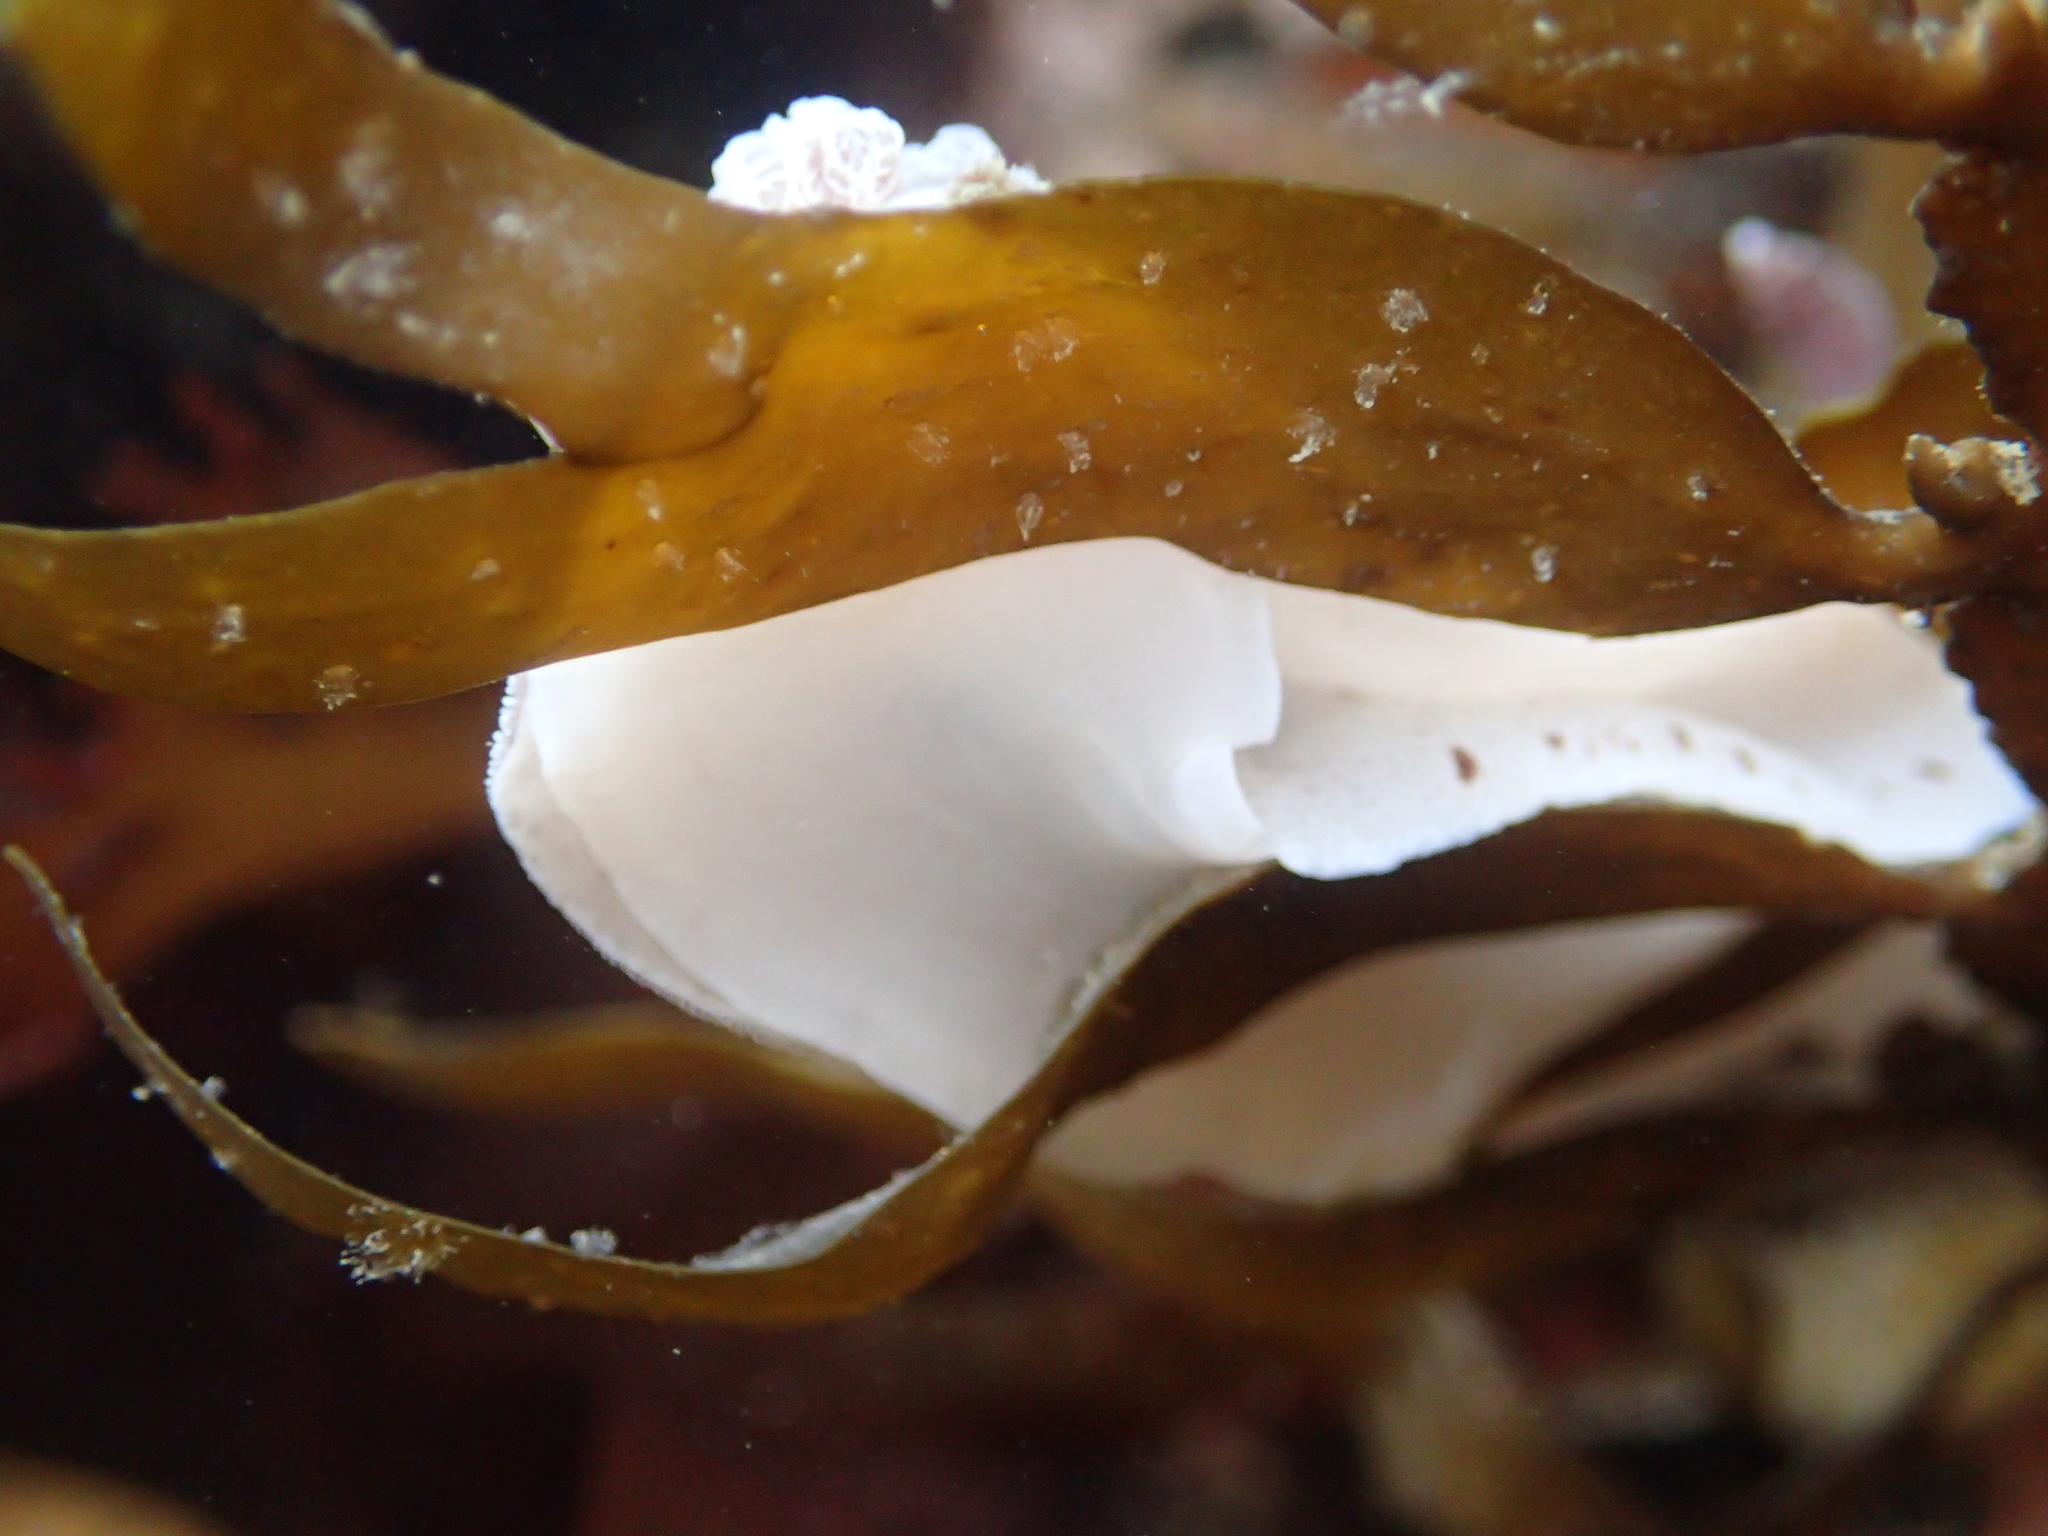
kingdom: Animalia
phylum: Mollusca
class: Gastropoda
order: Nudibranchia
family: Discodorididae
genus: Alloiodoris
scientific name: Alloiodoris lanuginata
